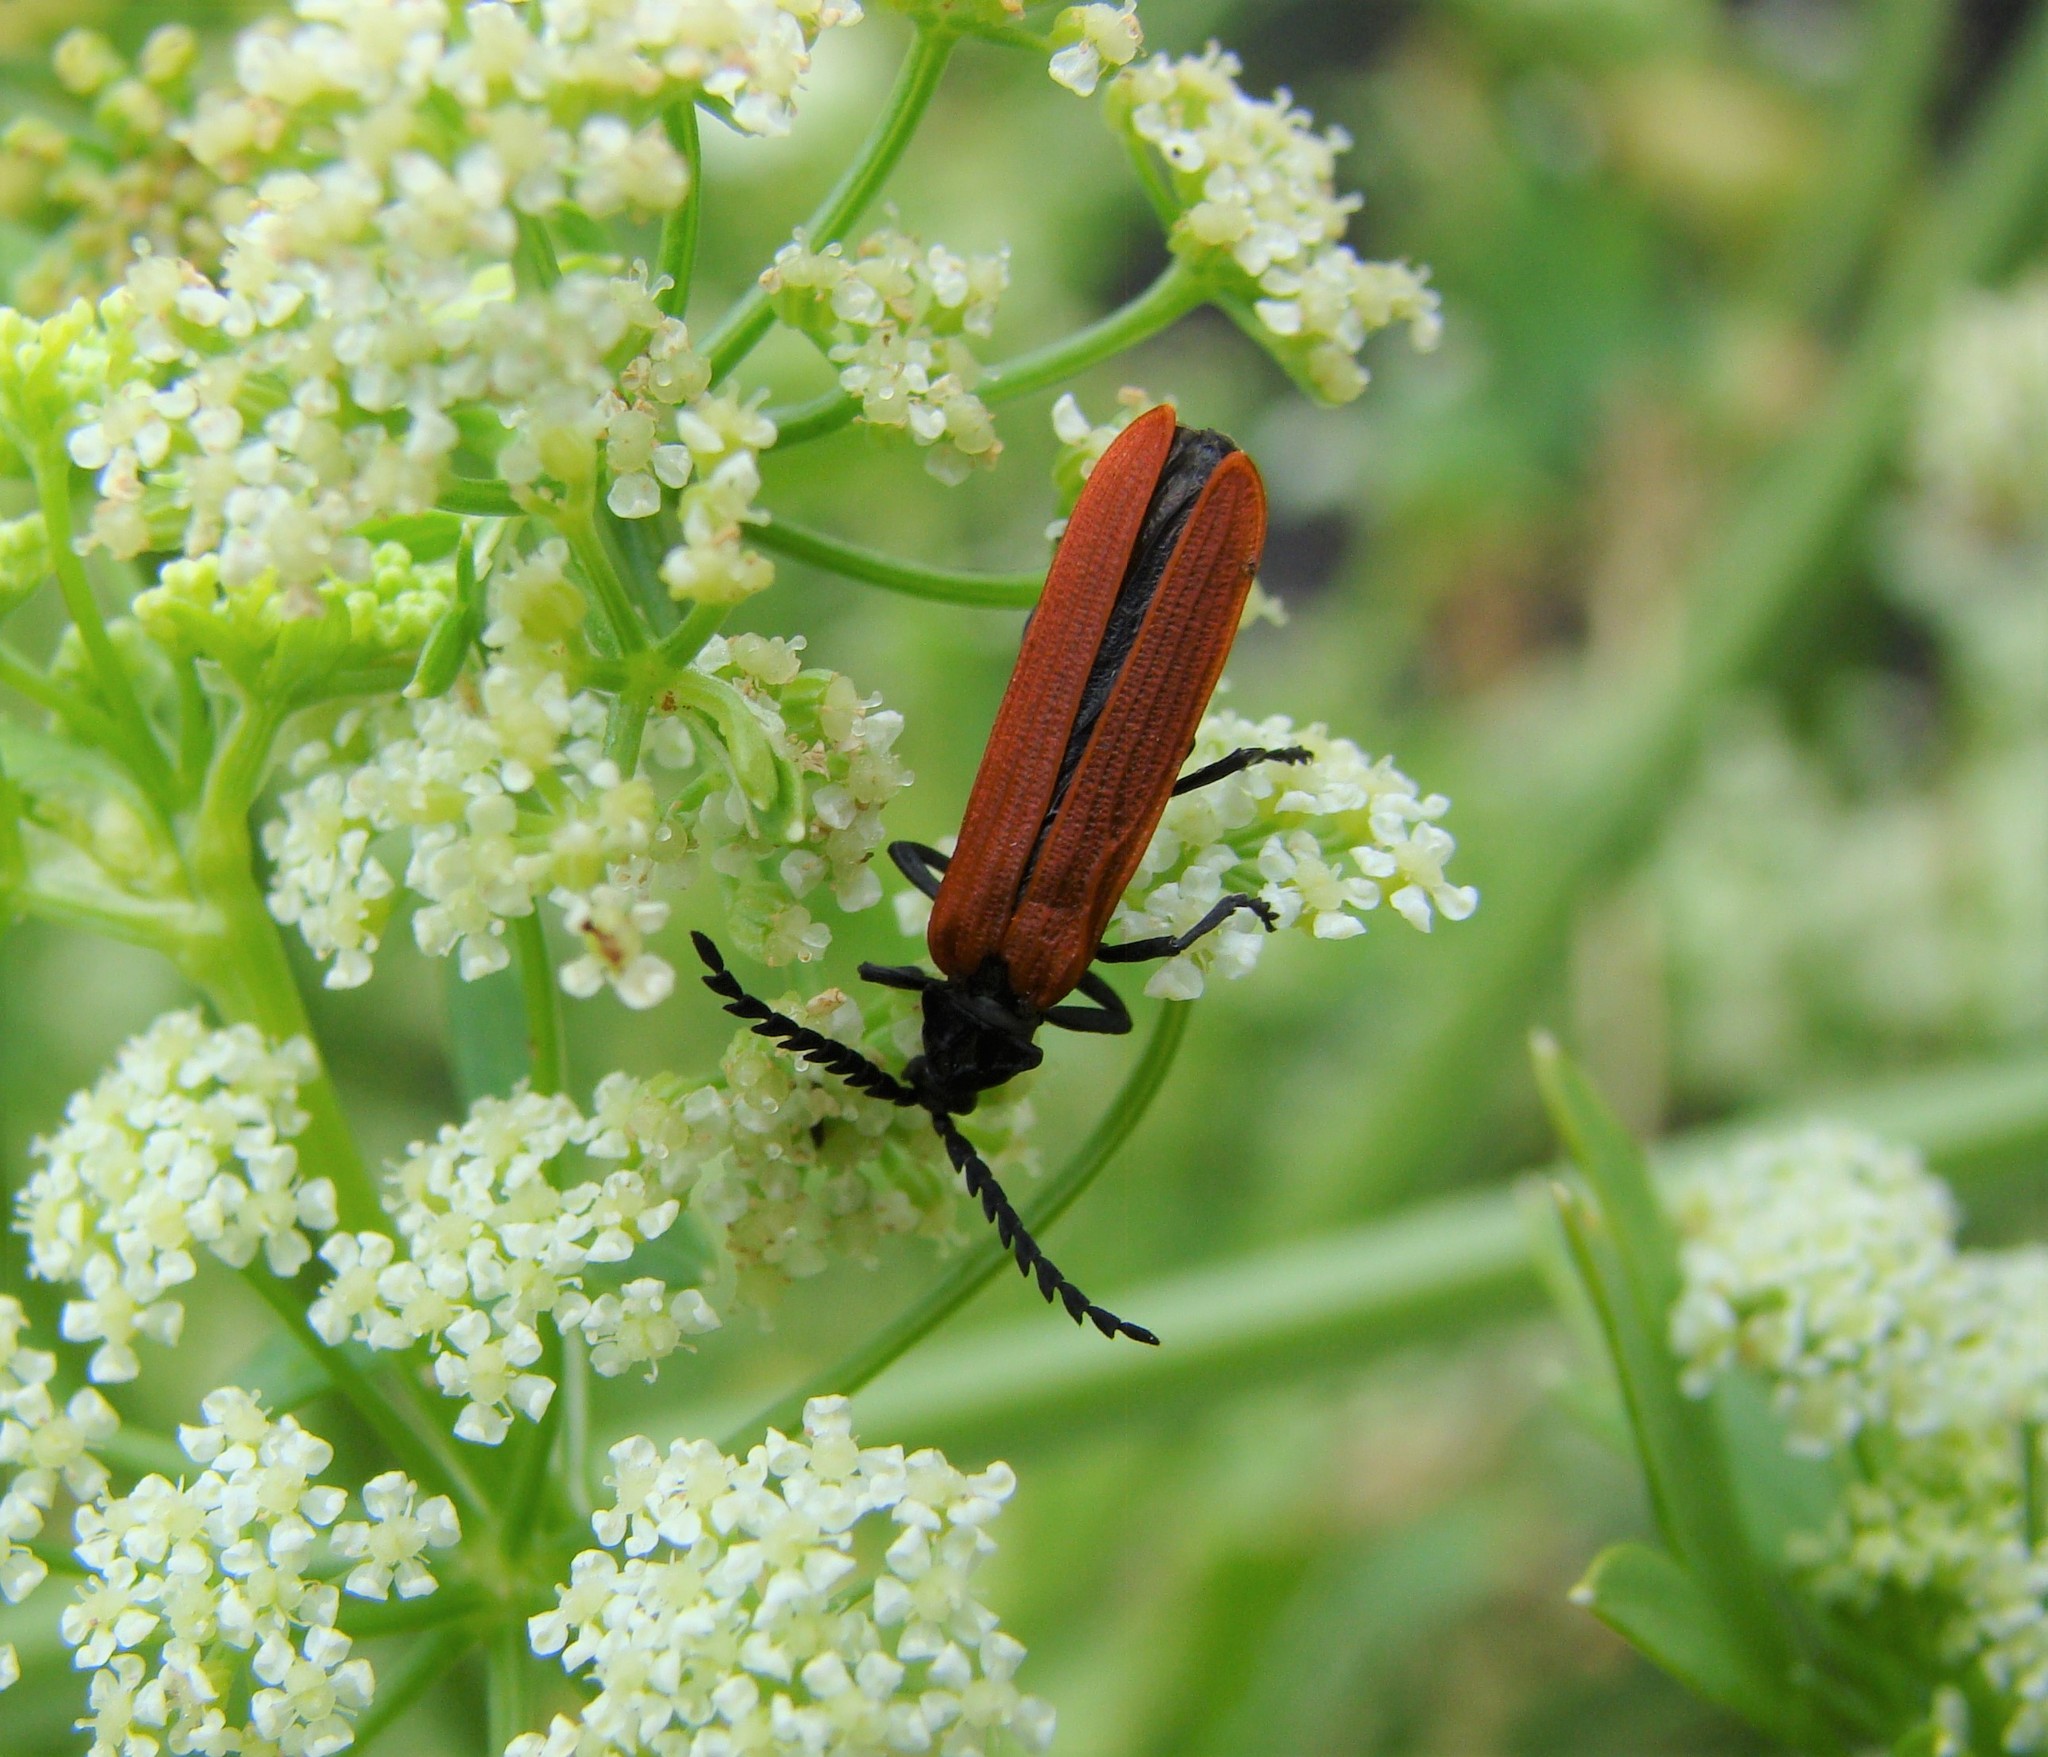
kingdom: Animalia
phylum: Arthropoda
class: Insecta
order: Coleoptera
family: Lycidae
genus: Porrostoma
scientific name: Porrostoma rufipenne
